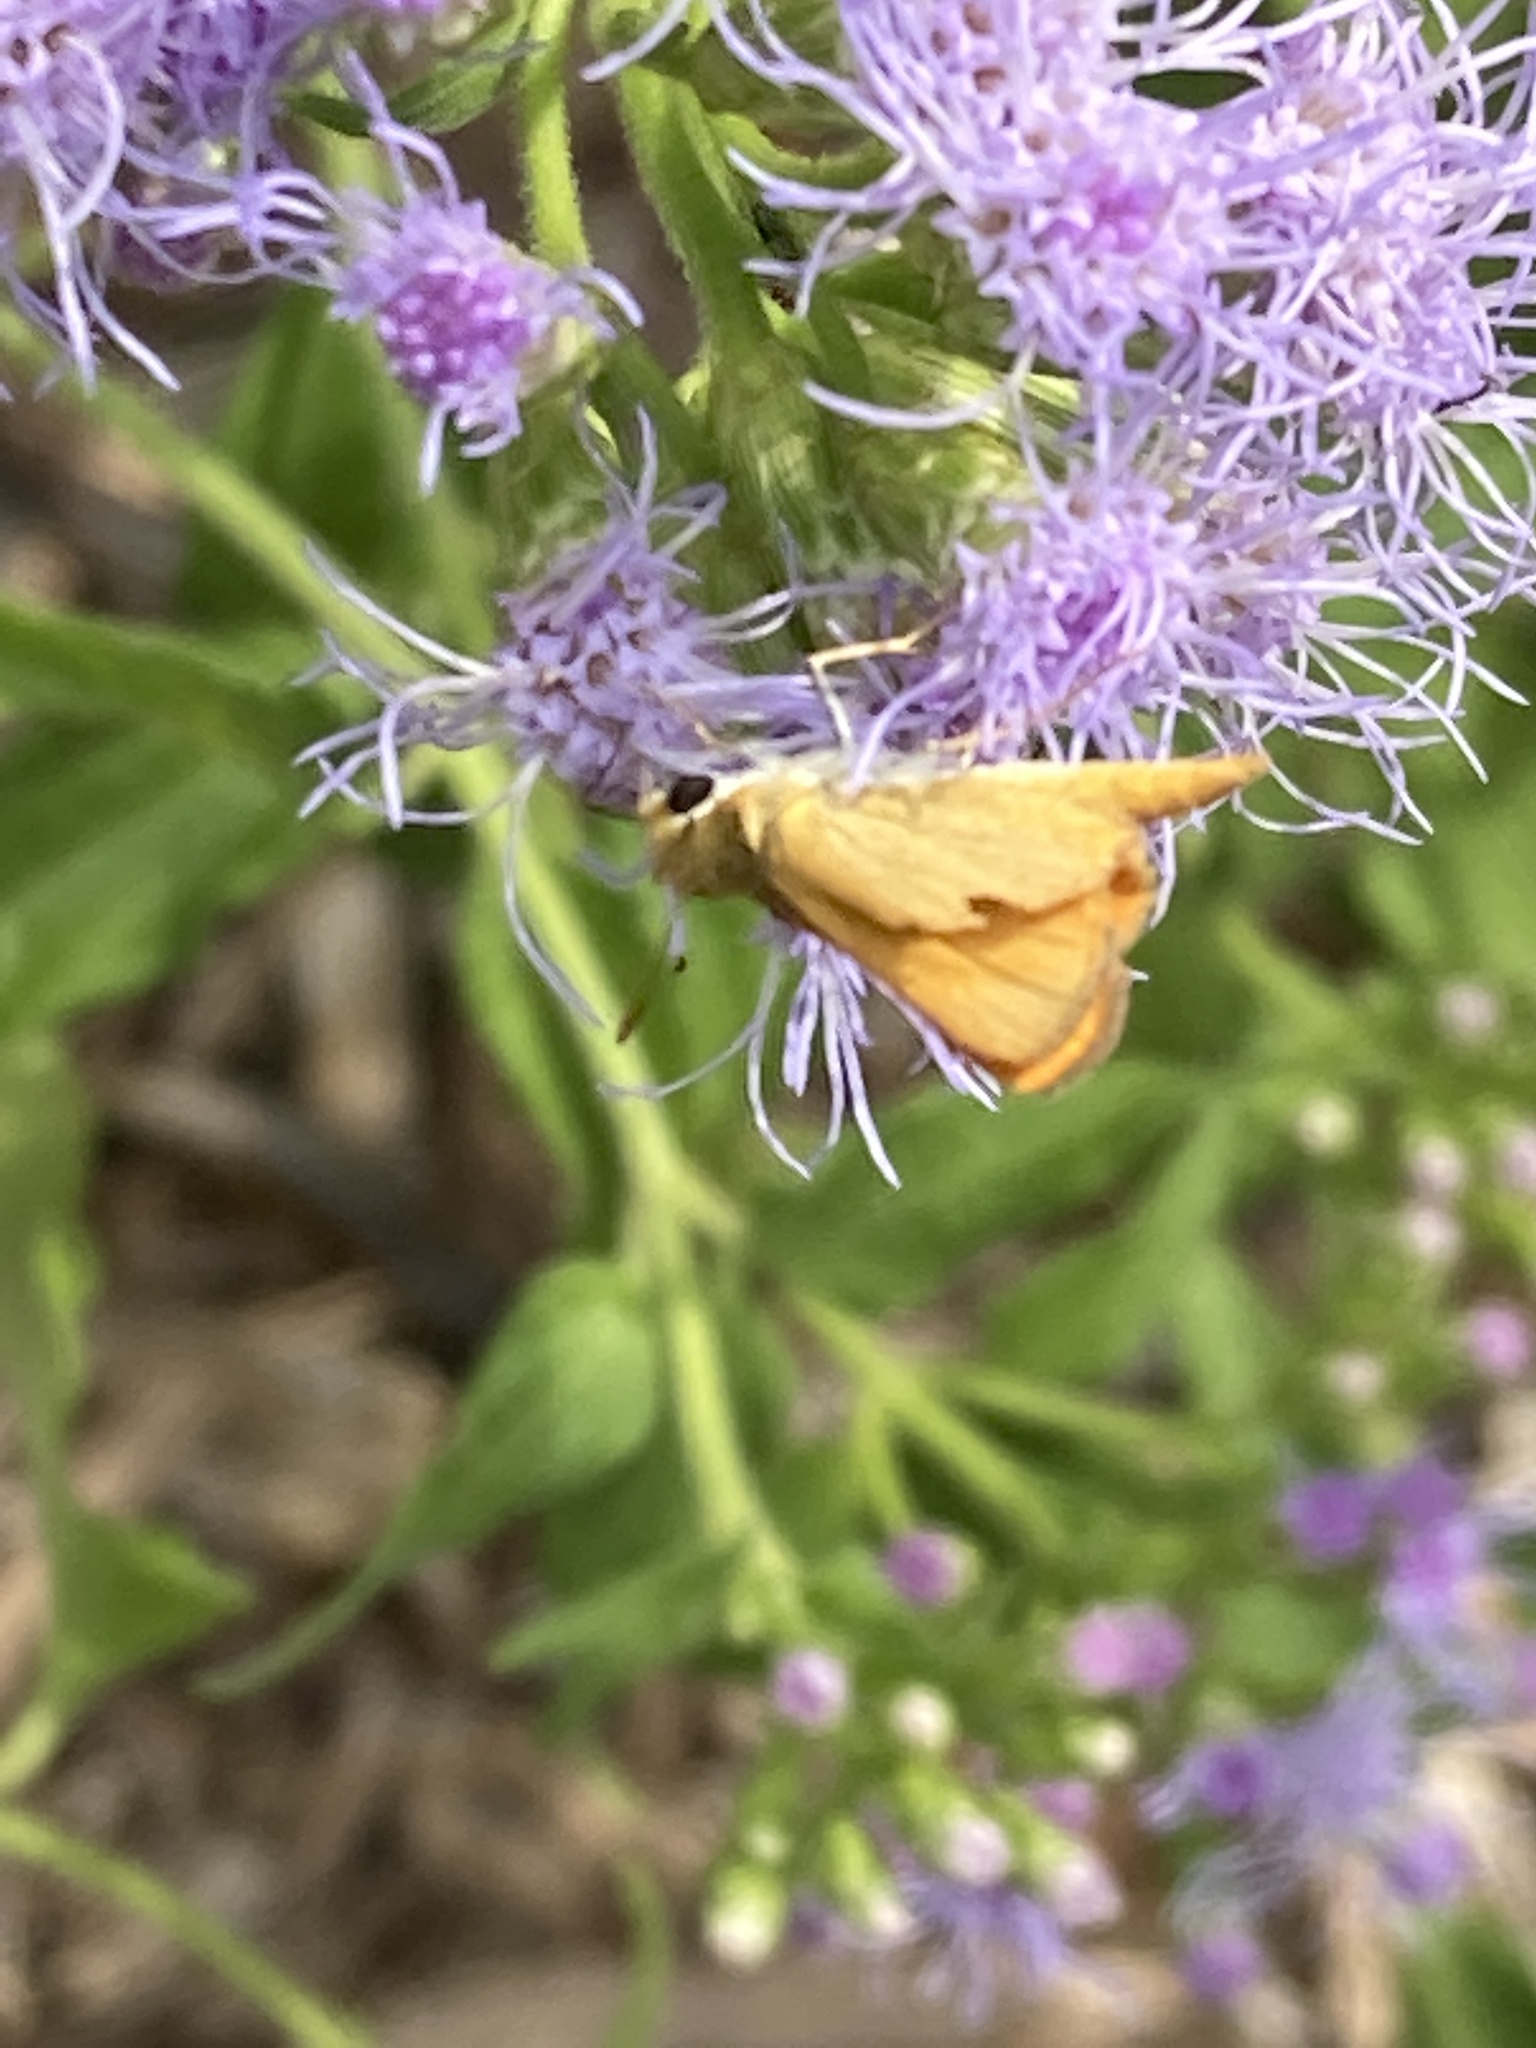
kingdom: Animalia
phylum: Arthropoda
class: Insecta
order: Lepidoptera
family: Hesperiidae
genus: Copaeodes
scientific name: Copaeodes aurantiaca
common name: Orange skipperling
